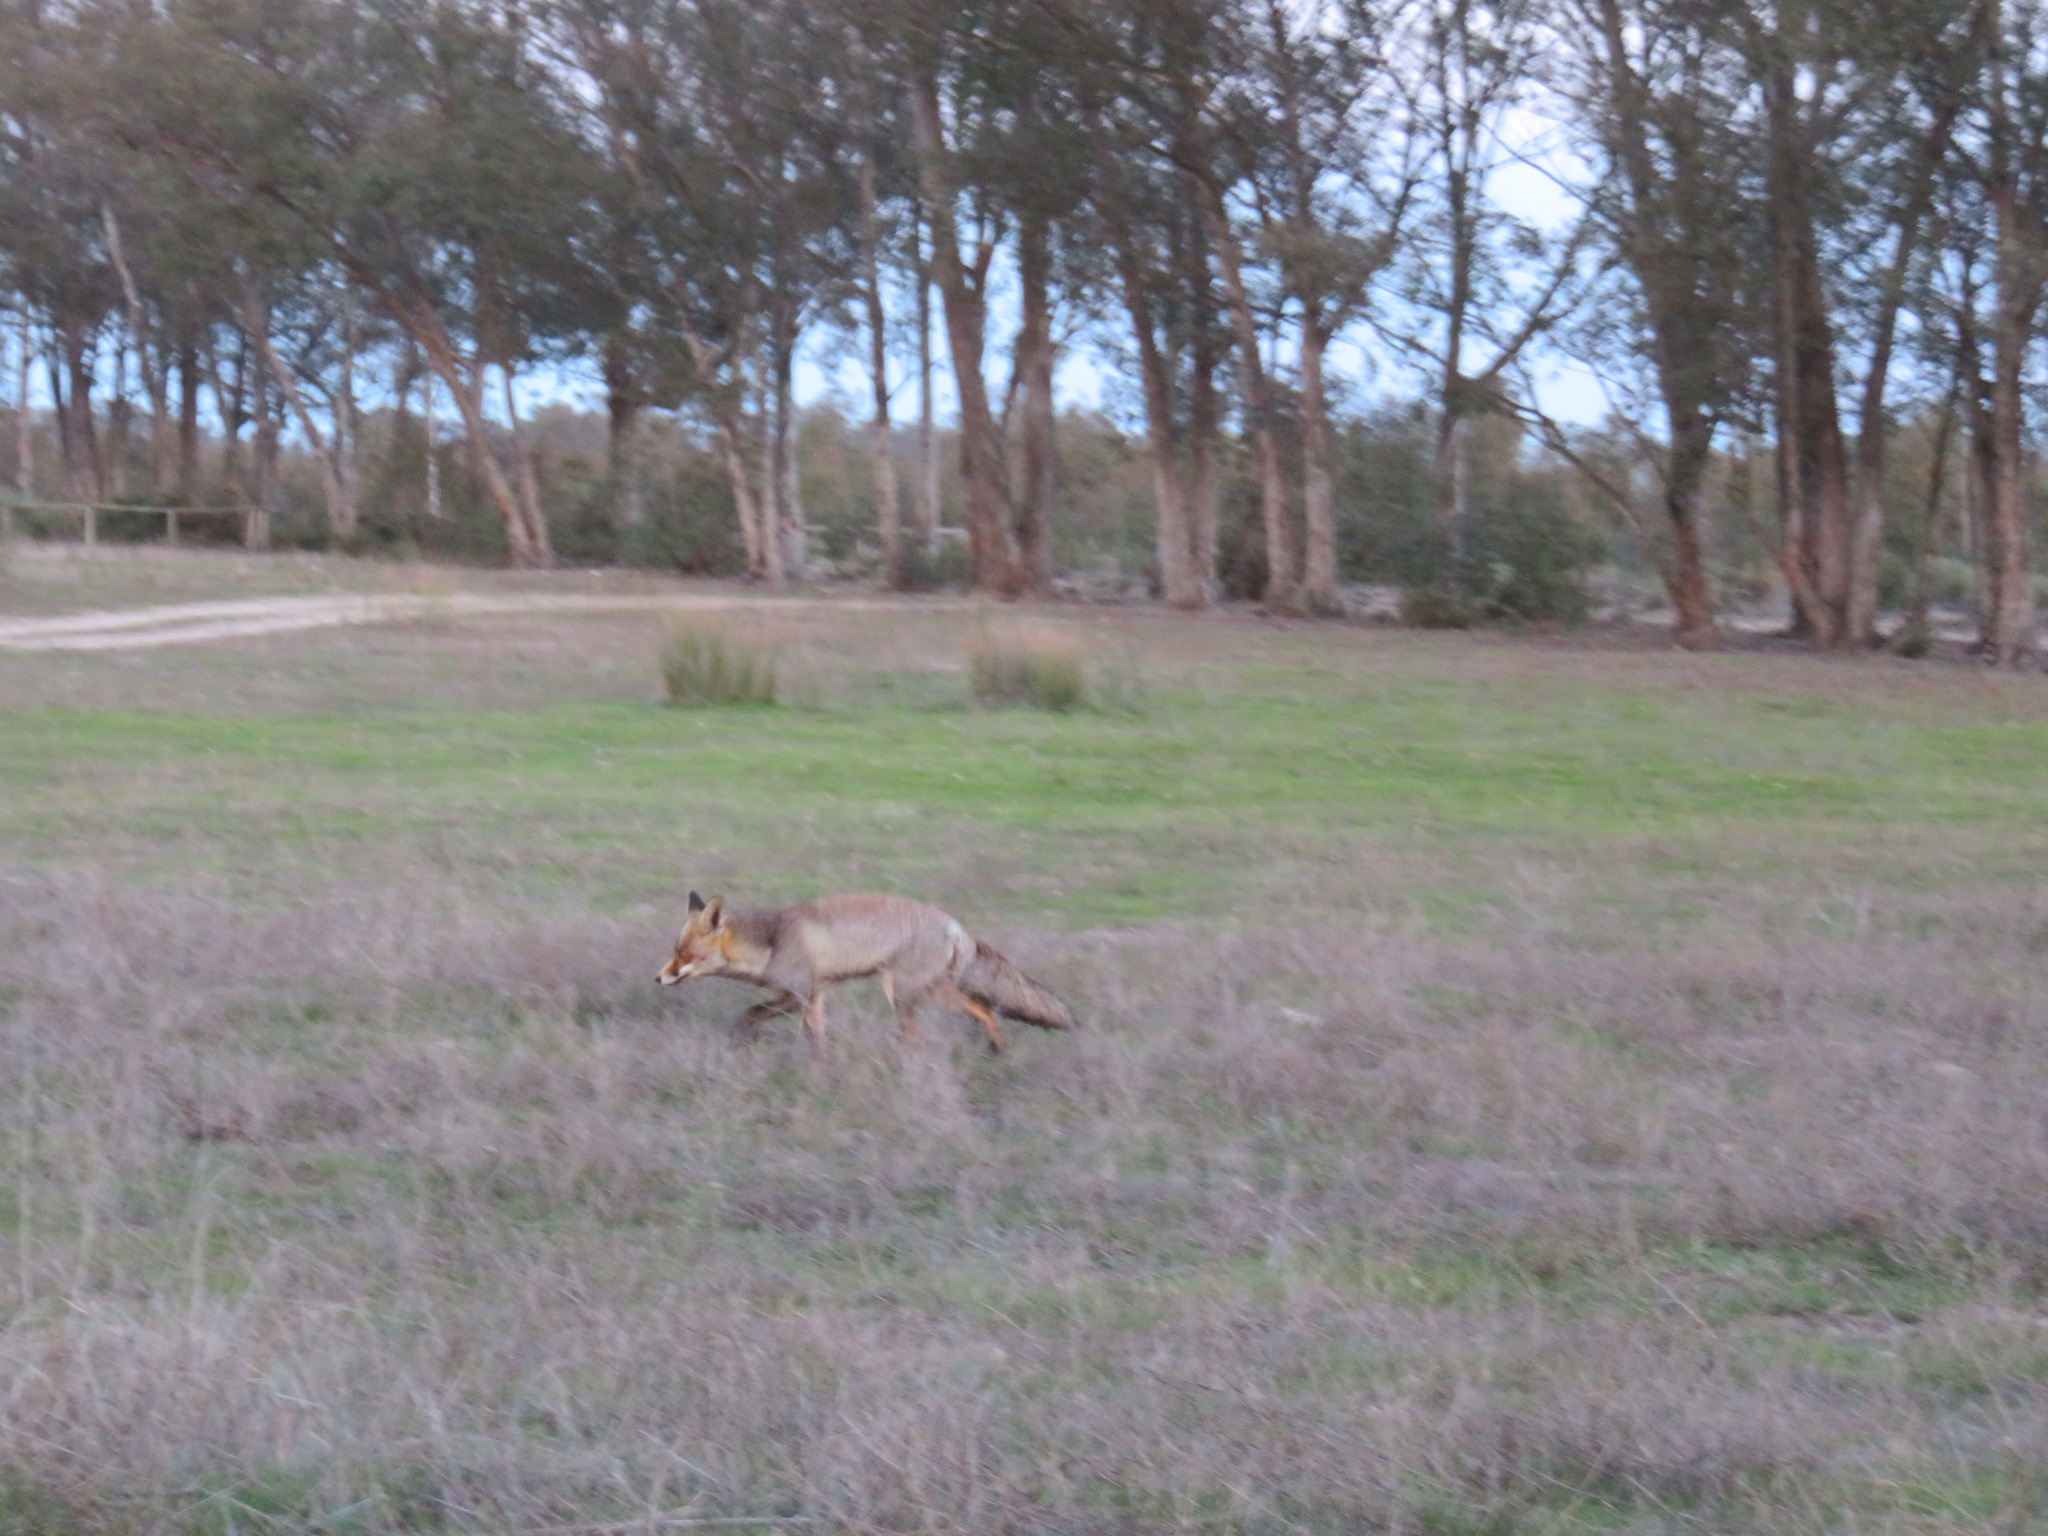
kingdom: Animalia
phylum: Chordata
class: Mammalia
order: Carnivora
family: Canidae
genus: Vulpes
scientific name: Vulpes vulpes
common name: Red fox
